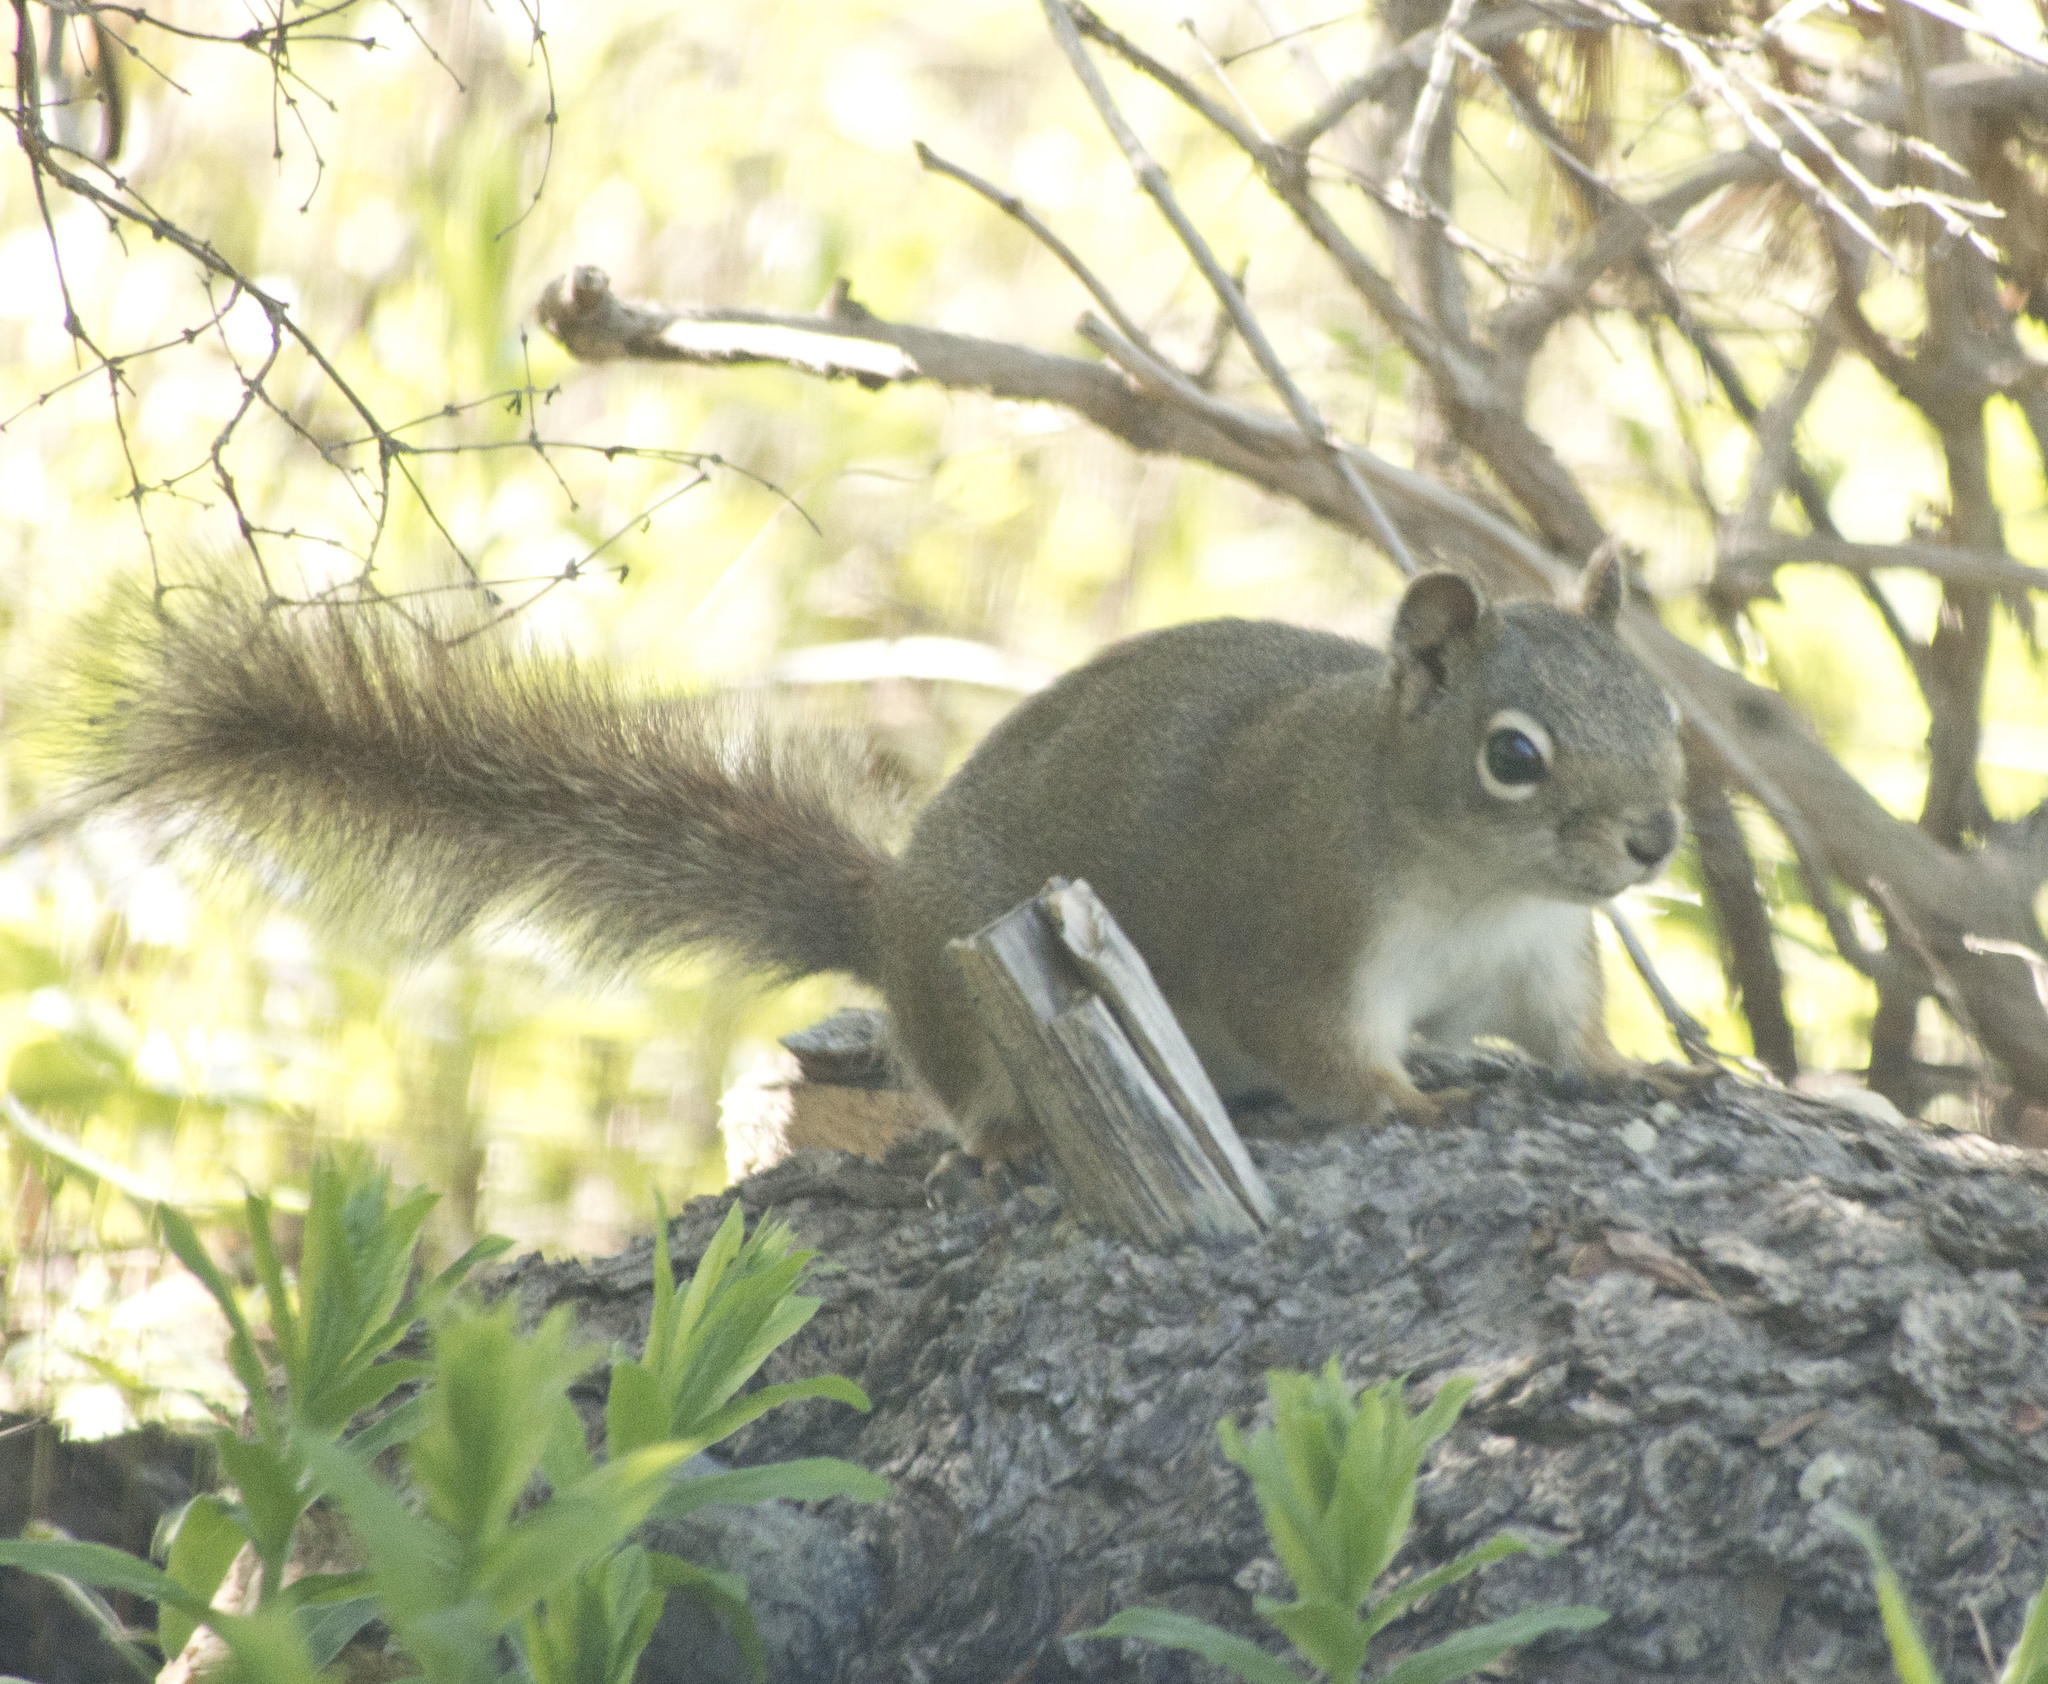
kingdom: Animalia
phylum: Chordata
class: Mammalia
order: Rodentia
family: Sciuridae
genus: Tamiasciurus
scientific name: Tamiasciurus hudsonicus
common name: Red squirrel
